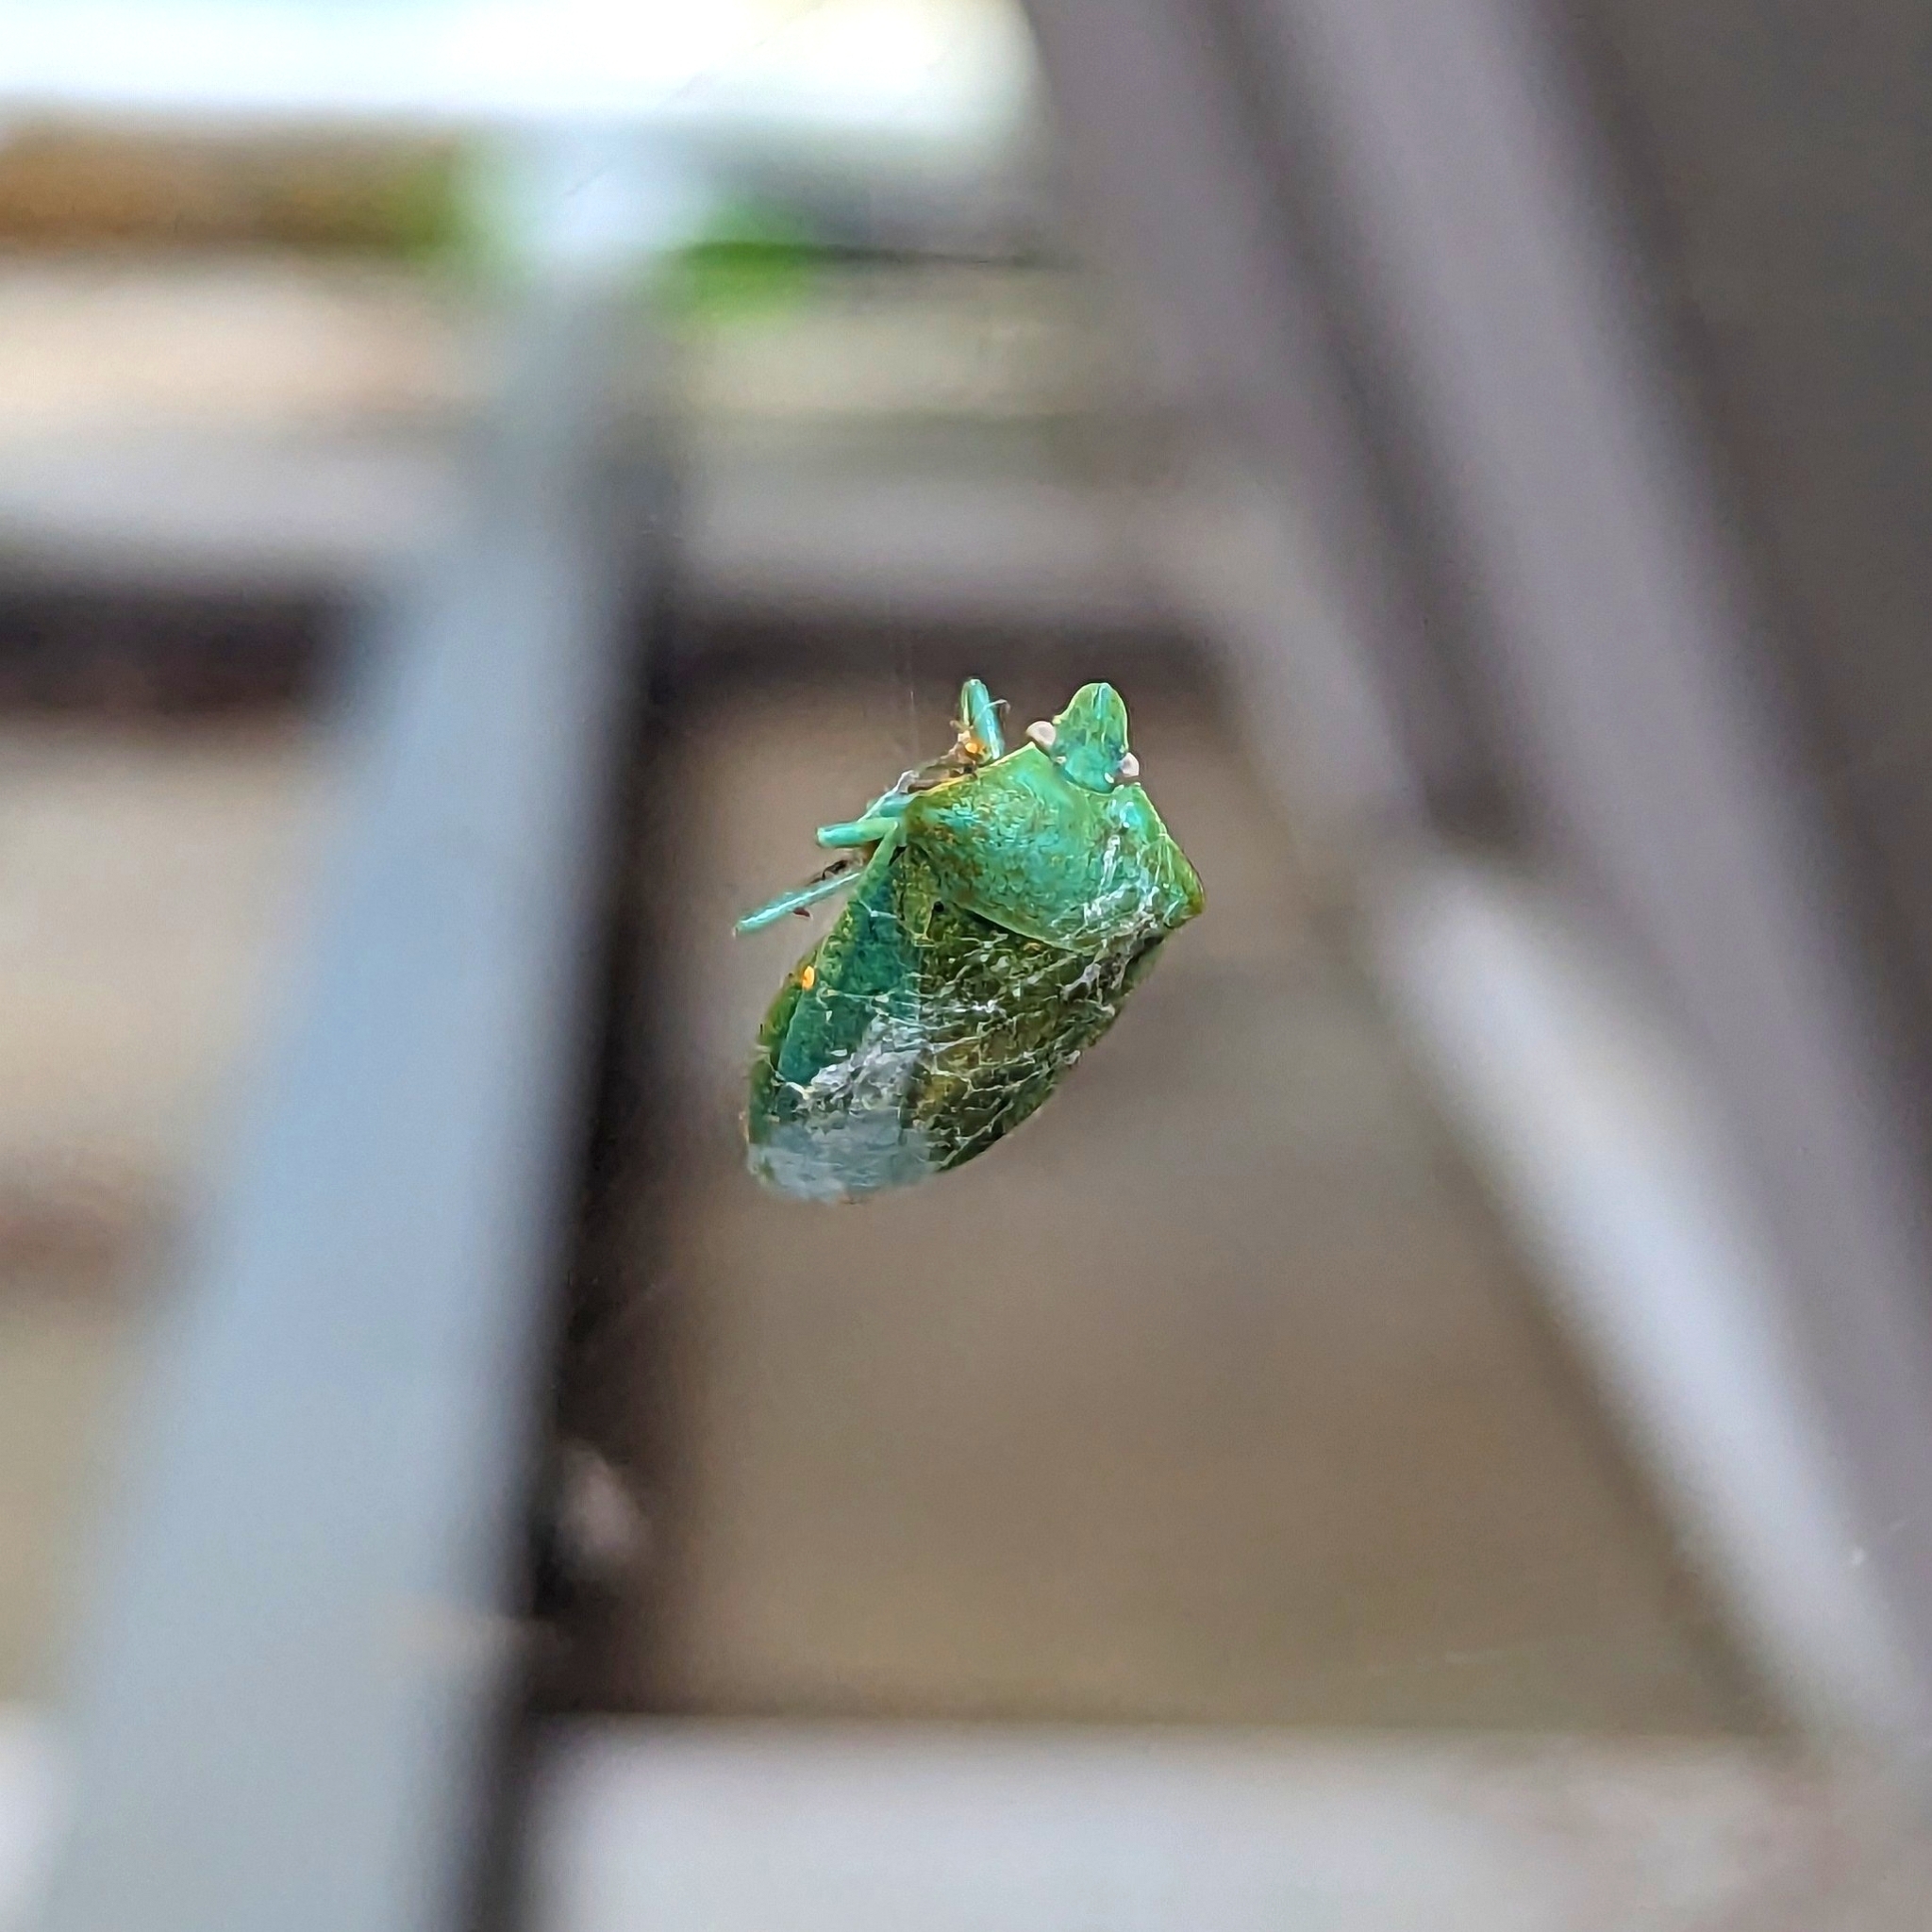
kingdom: Animalia
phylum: Arthropoda
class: Insecta
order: Hemiptera
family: Pentatomidae
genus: Nezara
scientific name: Nezara viridula
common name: Southern green stink bug
